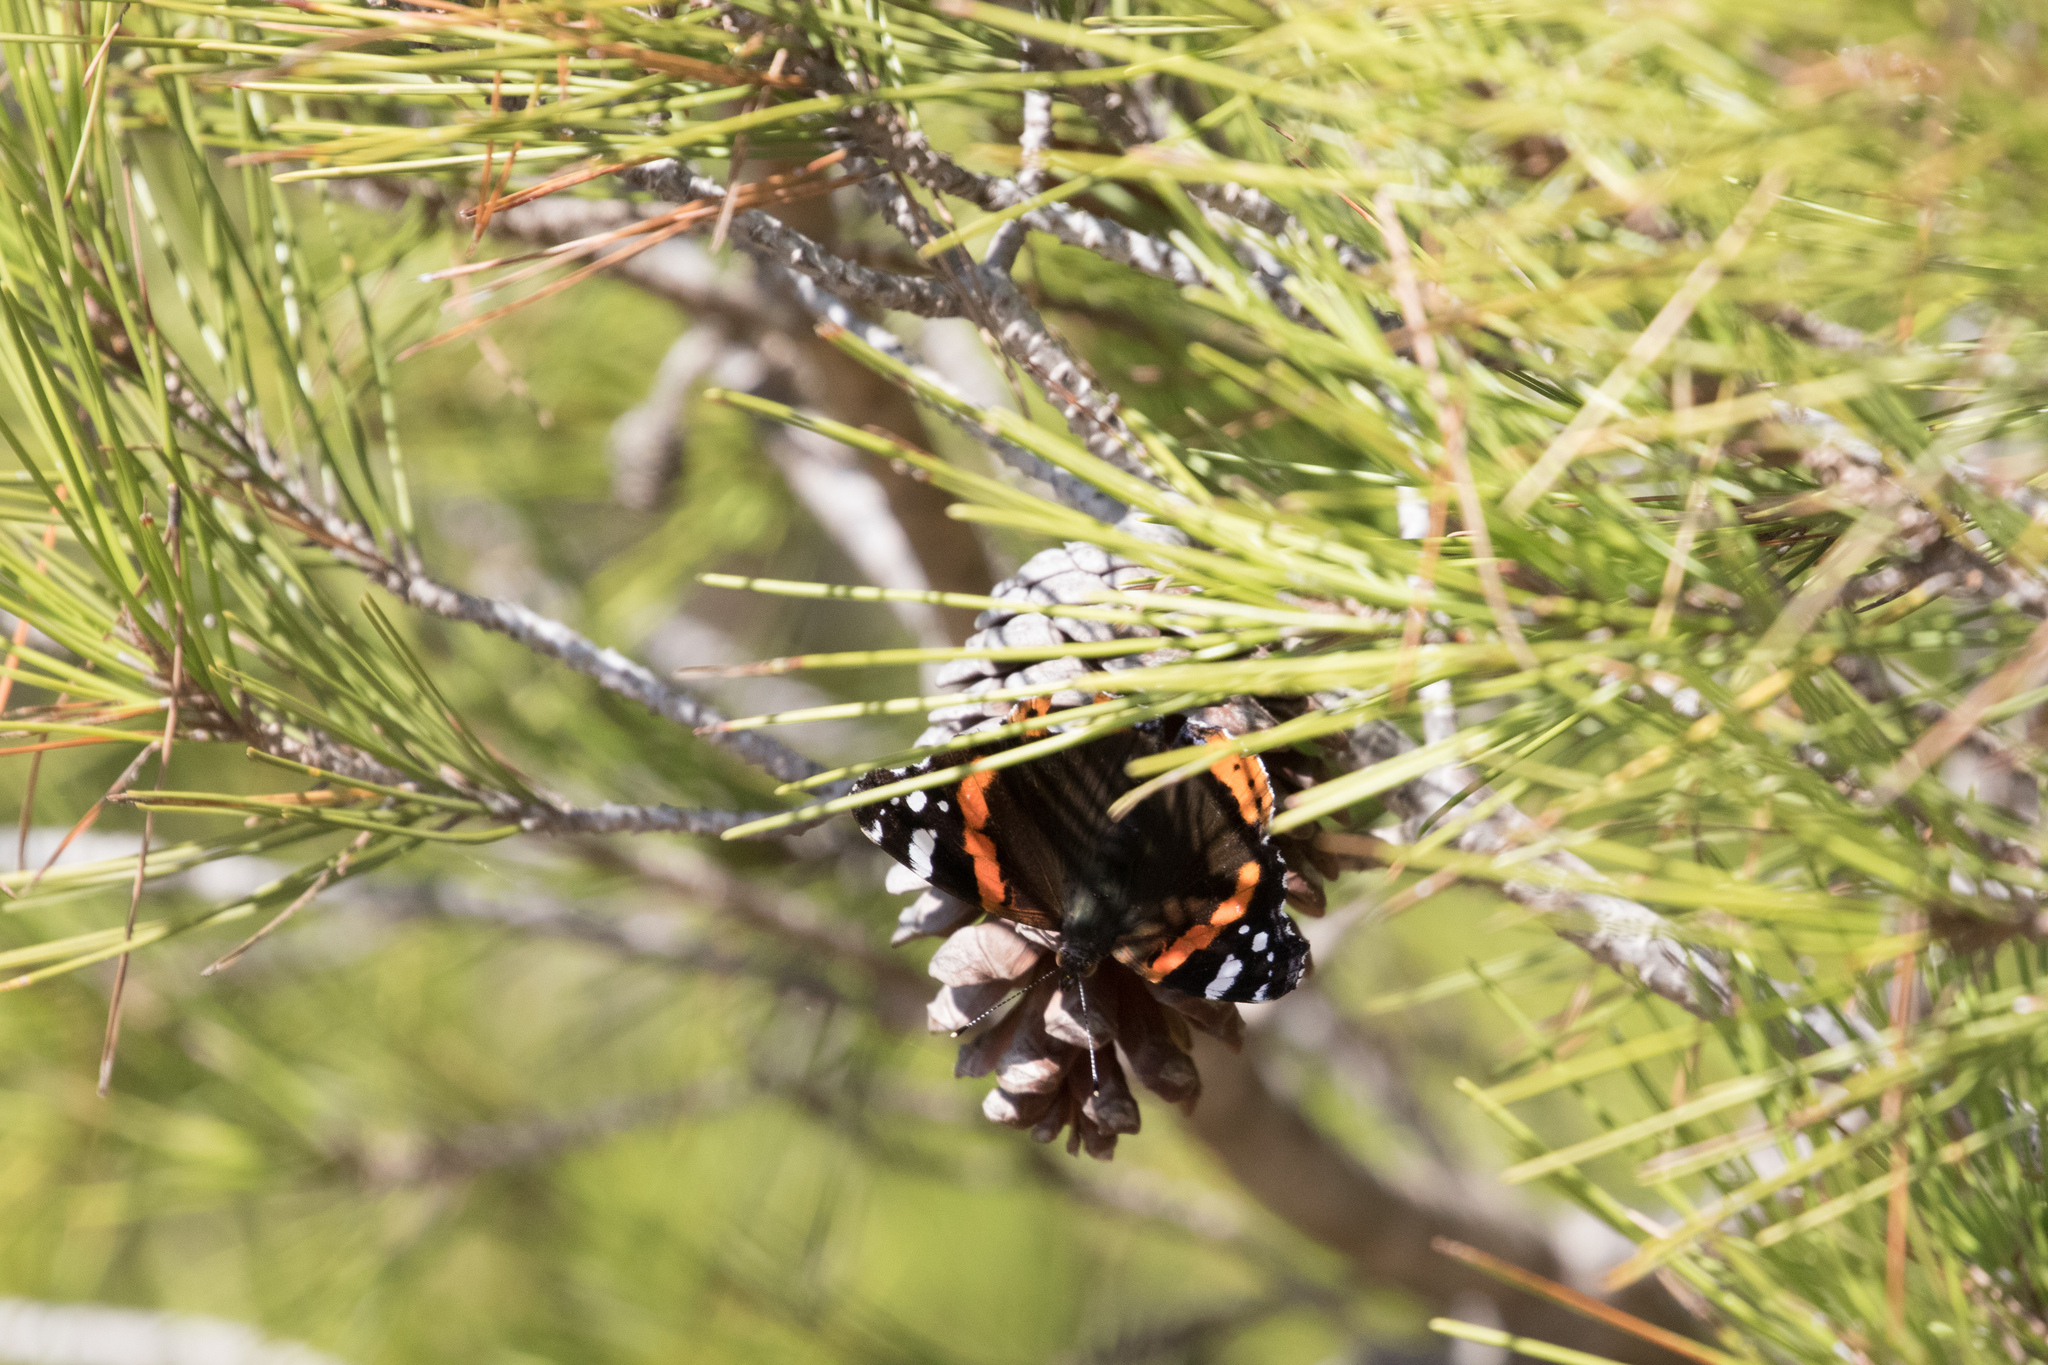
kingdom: Animalia
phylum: Arthropoda
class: Insecta
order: Lepidoptera
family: Nymphalidae
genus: Vanessa
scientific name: Vanessa atalanta
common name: Red admiral
